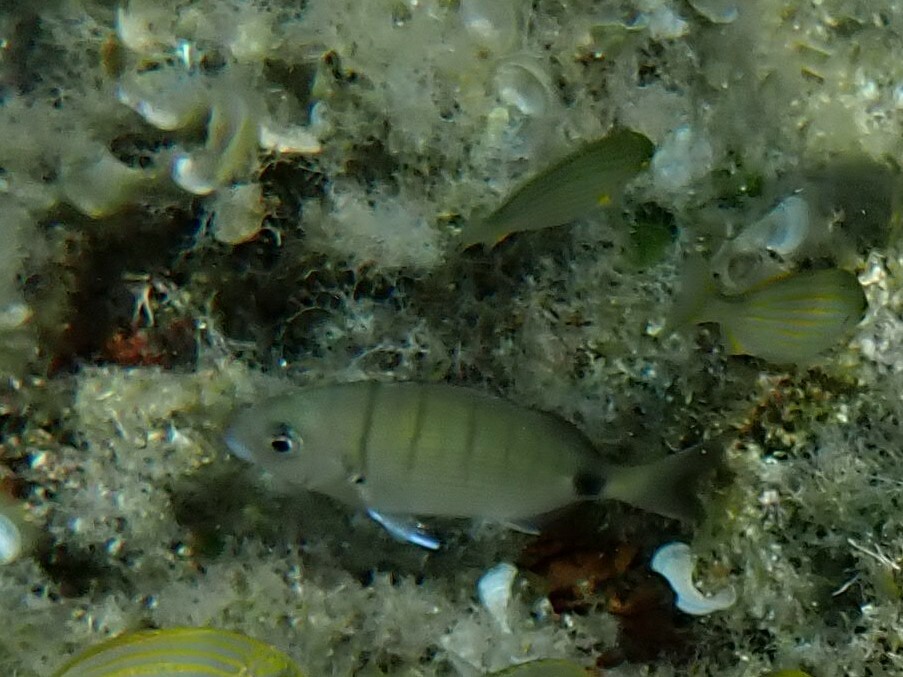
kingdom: Animalia
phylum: Chordata
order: Perciformes
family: Sparidae
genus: Diplodus
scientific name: Diplodus sargus
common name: White seabream
